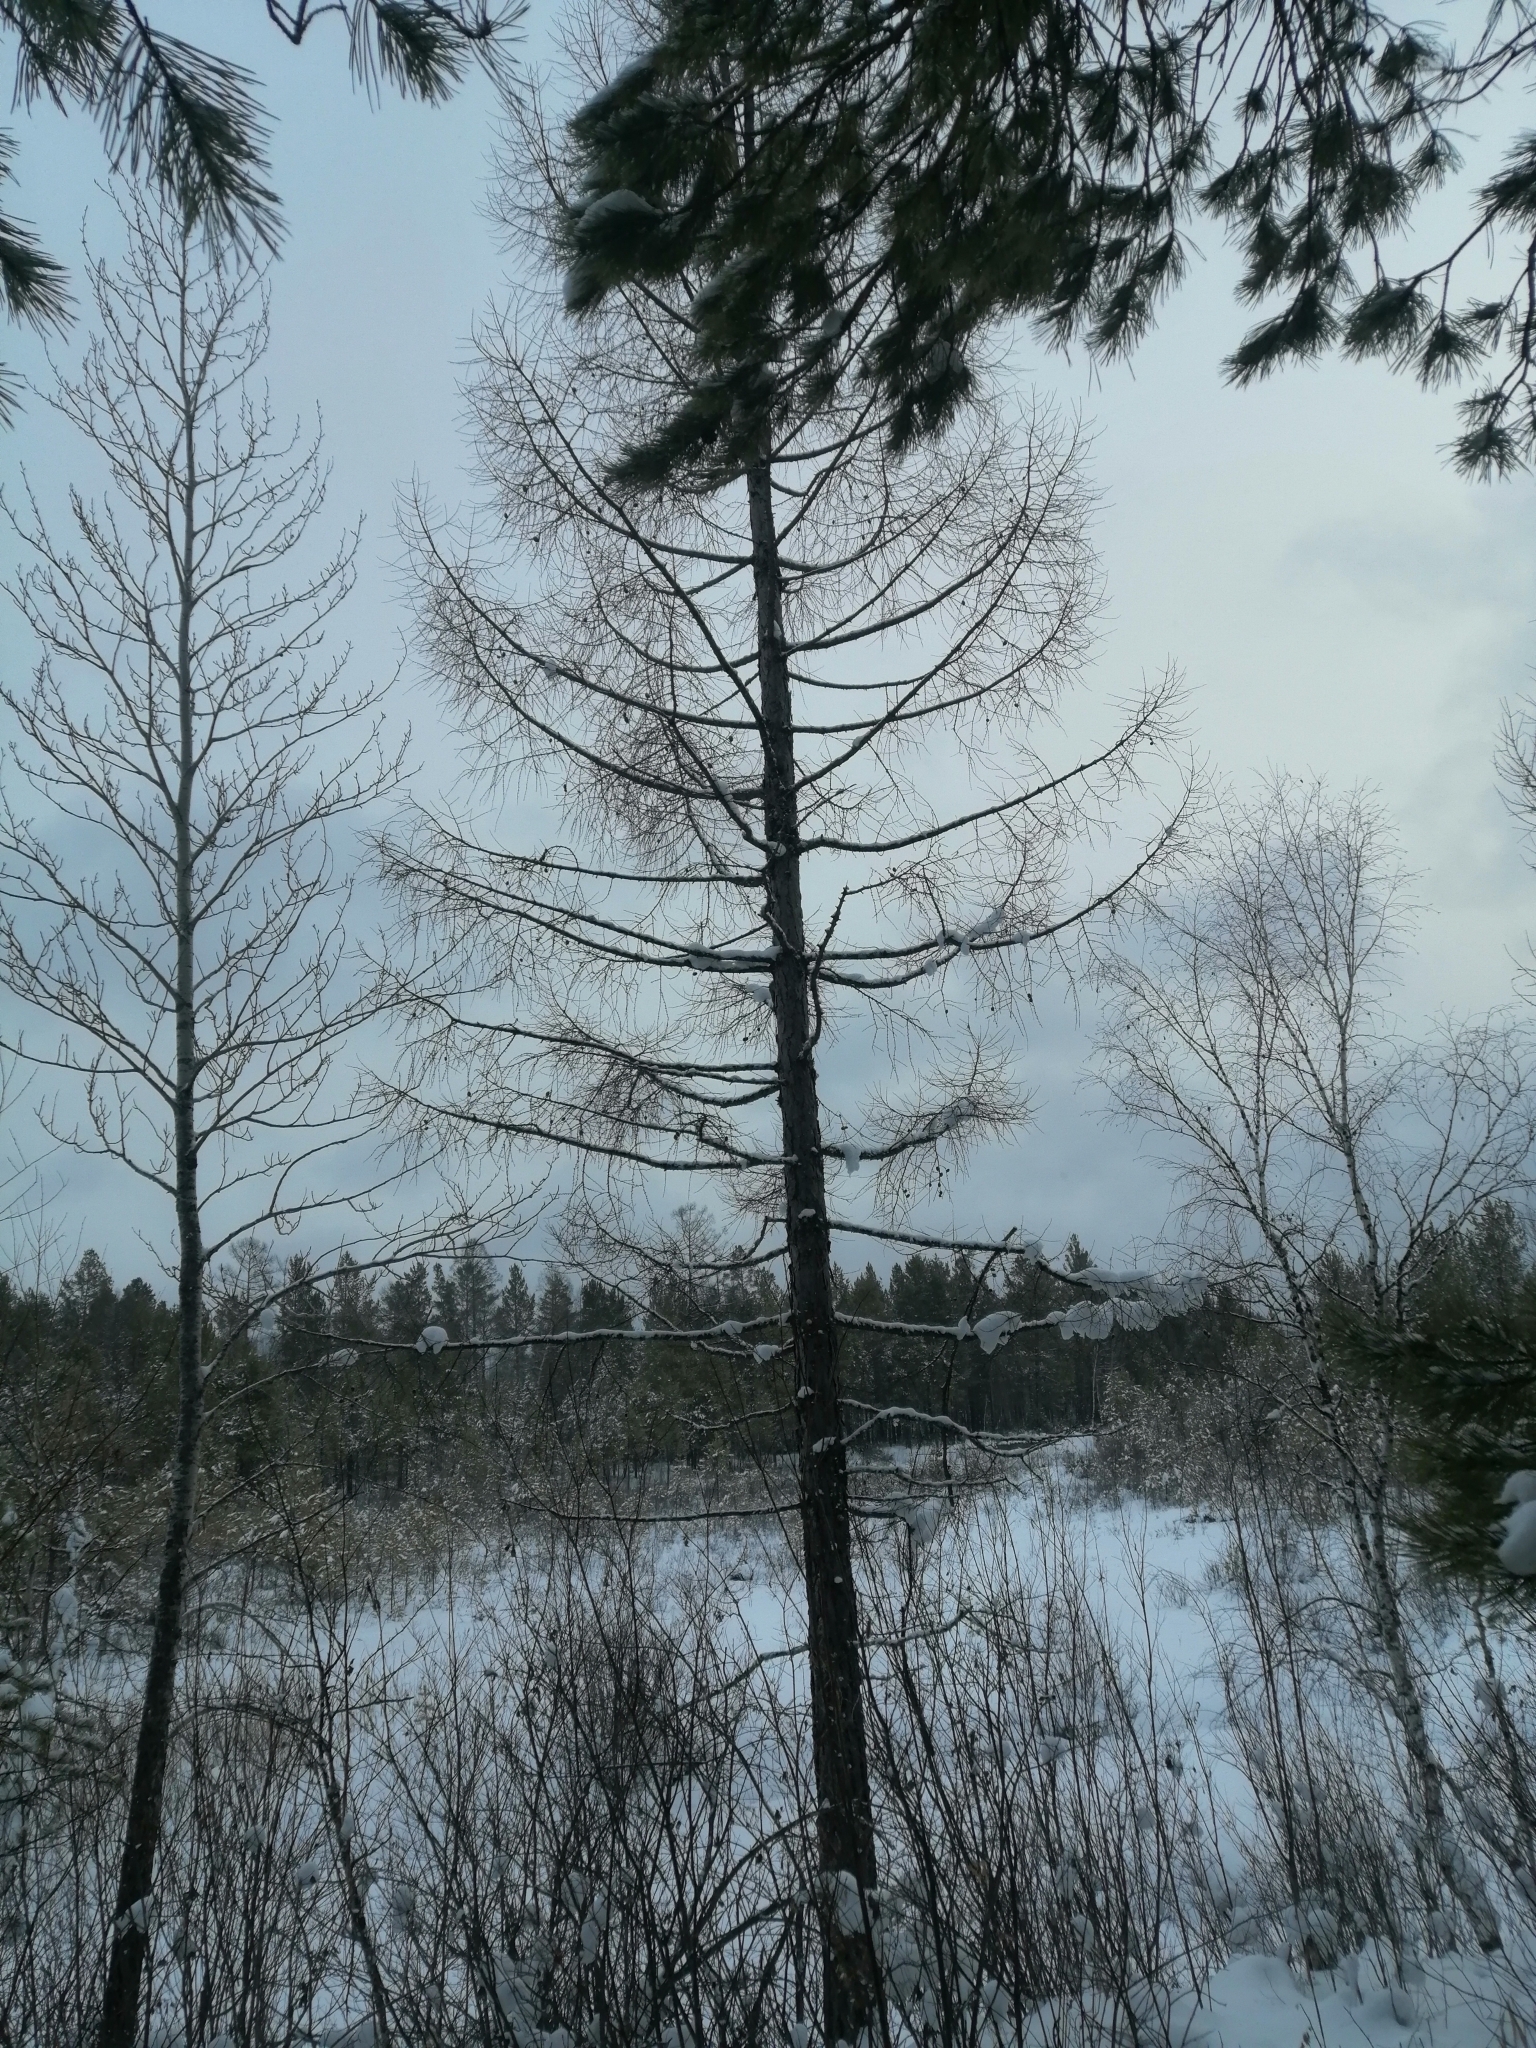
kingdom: Plantae
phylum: Tracheophyta
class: Pinopsida
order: Pinales
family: Pinaceae
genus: Larix
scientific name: Larix sibirica
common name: Siberian larch
